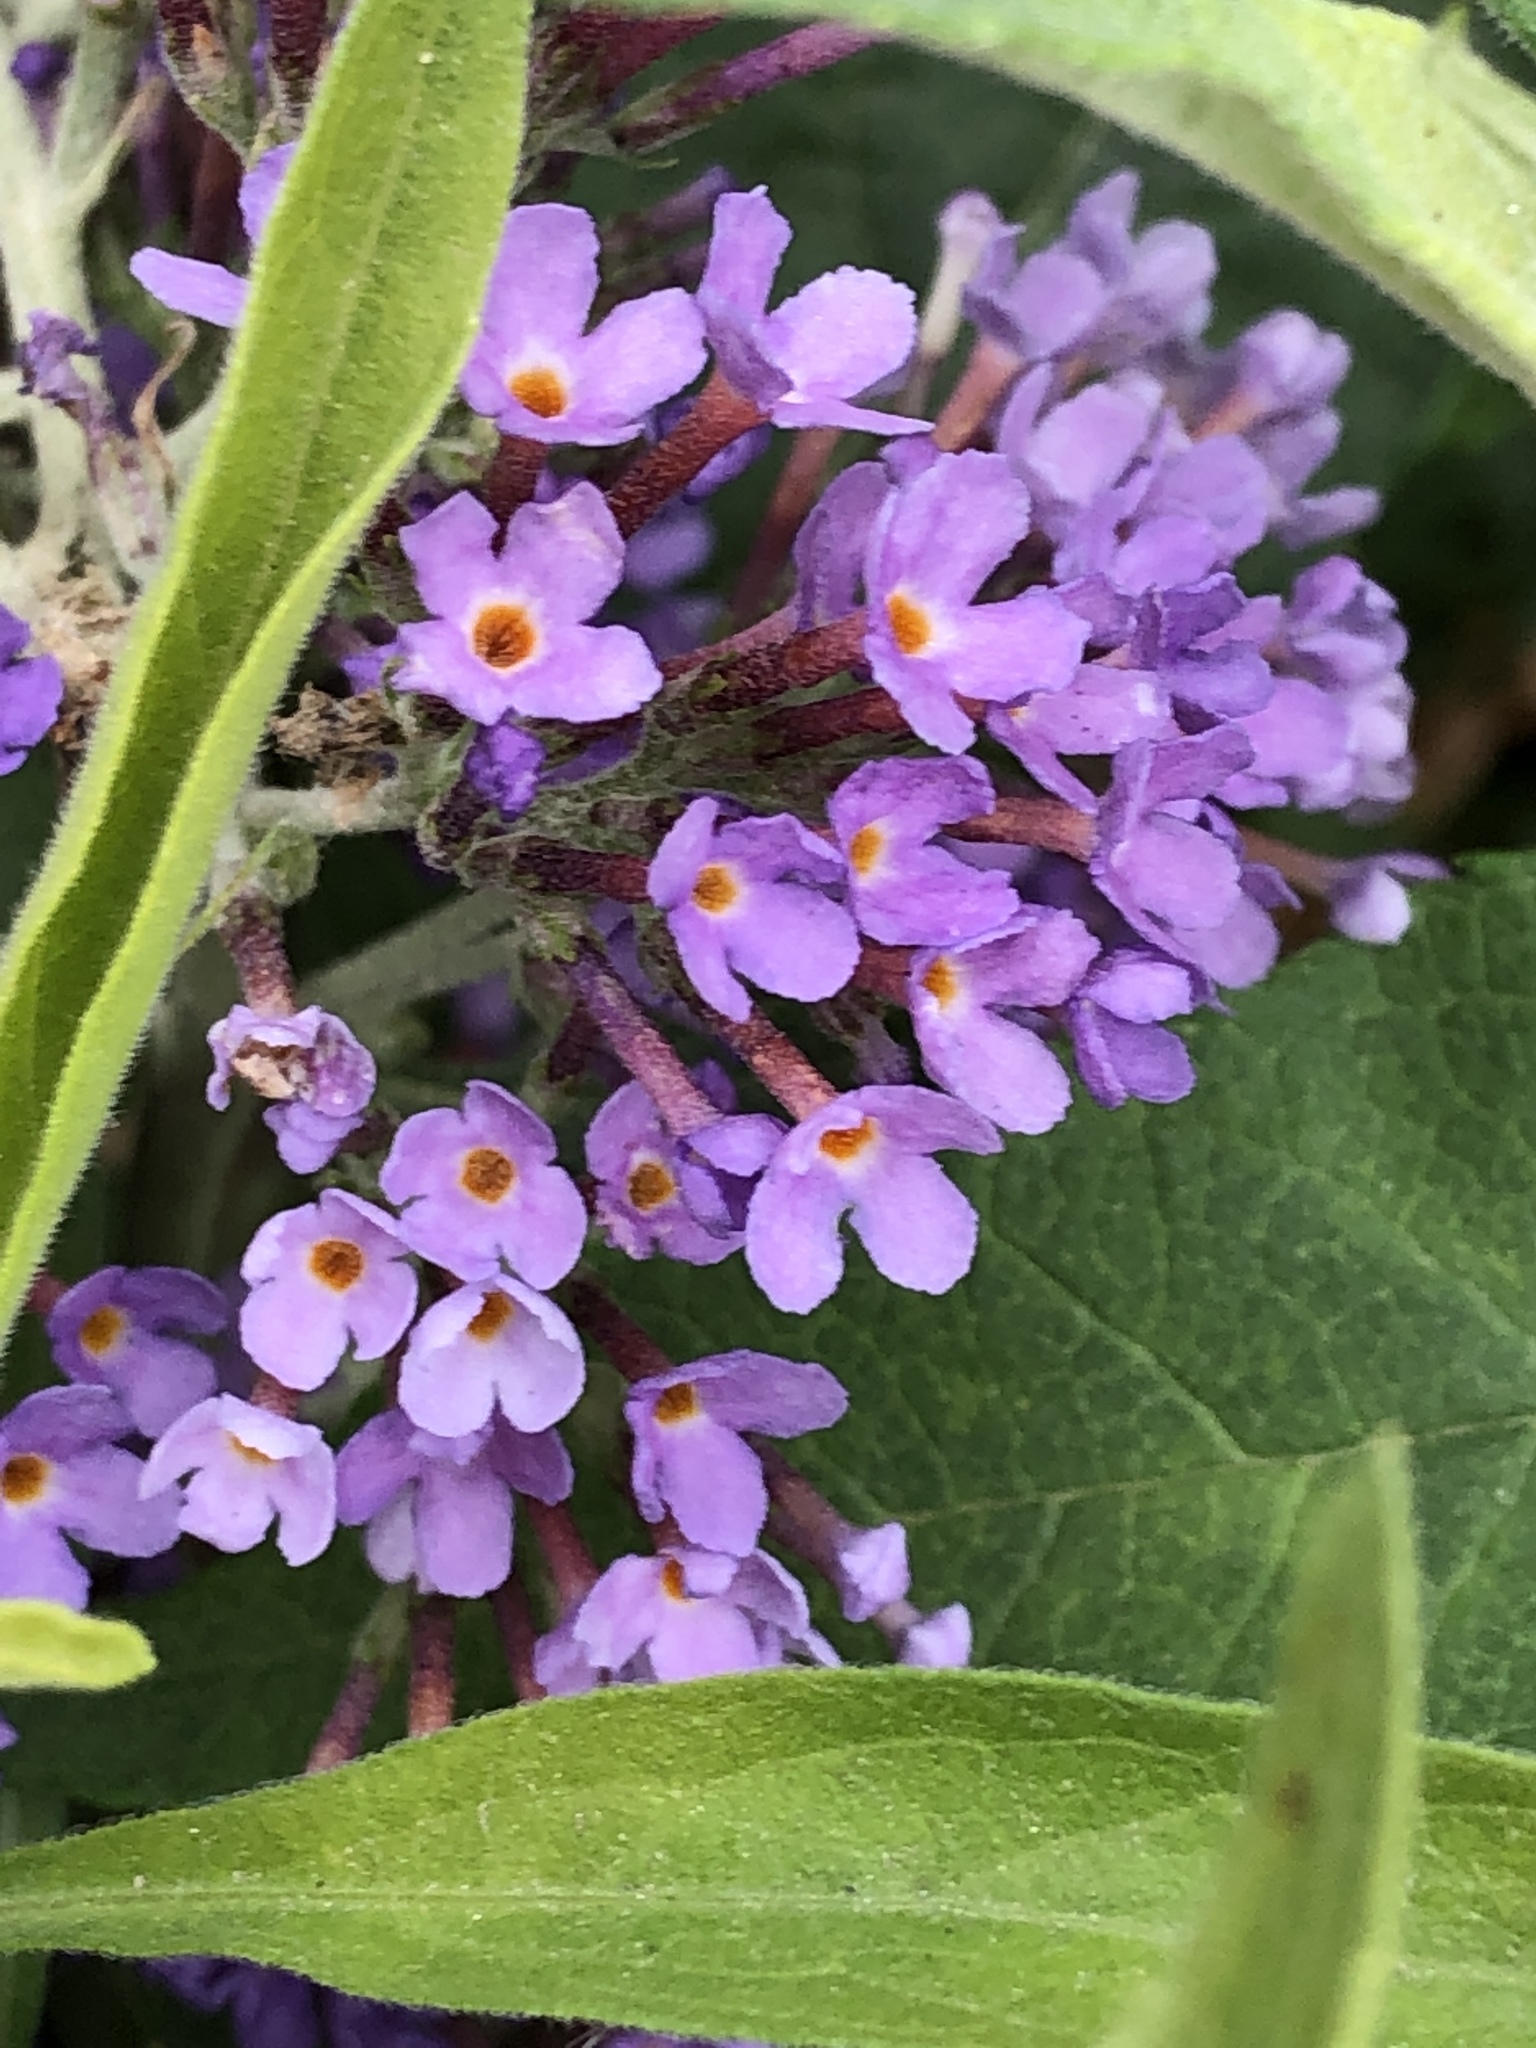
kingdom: Plantae
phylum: Tracheophyta
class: Magnoliopsida
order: Lamiales
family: Scrophulariaceae
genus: Buddleja
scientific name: Buddleja davidii
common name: Butterfly-bush
